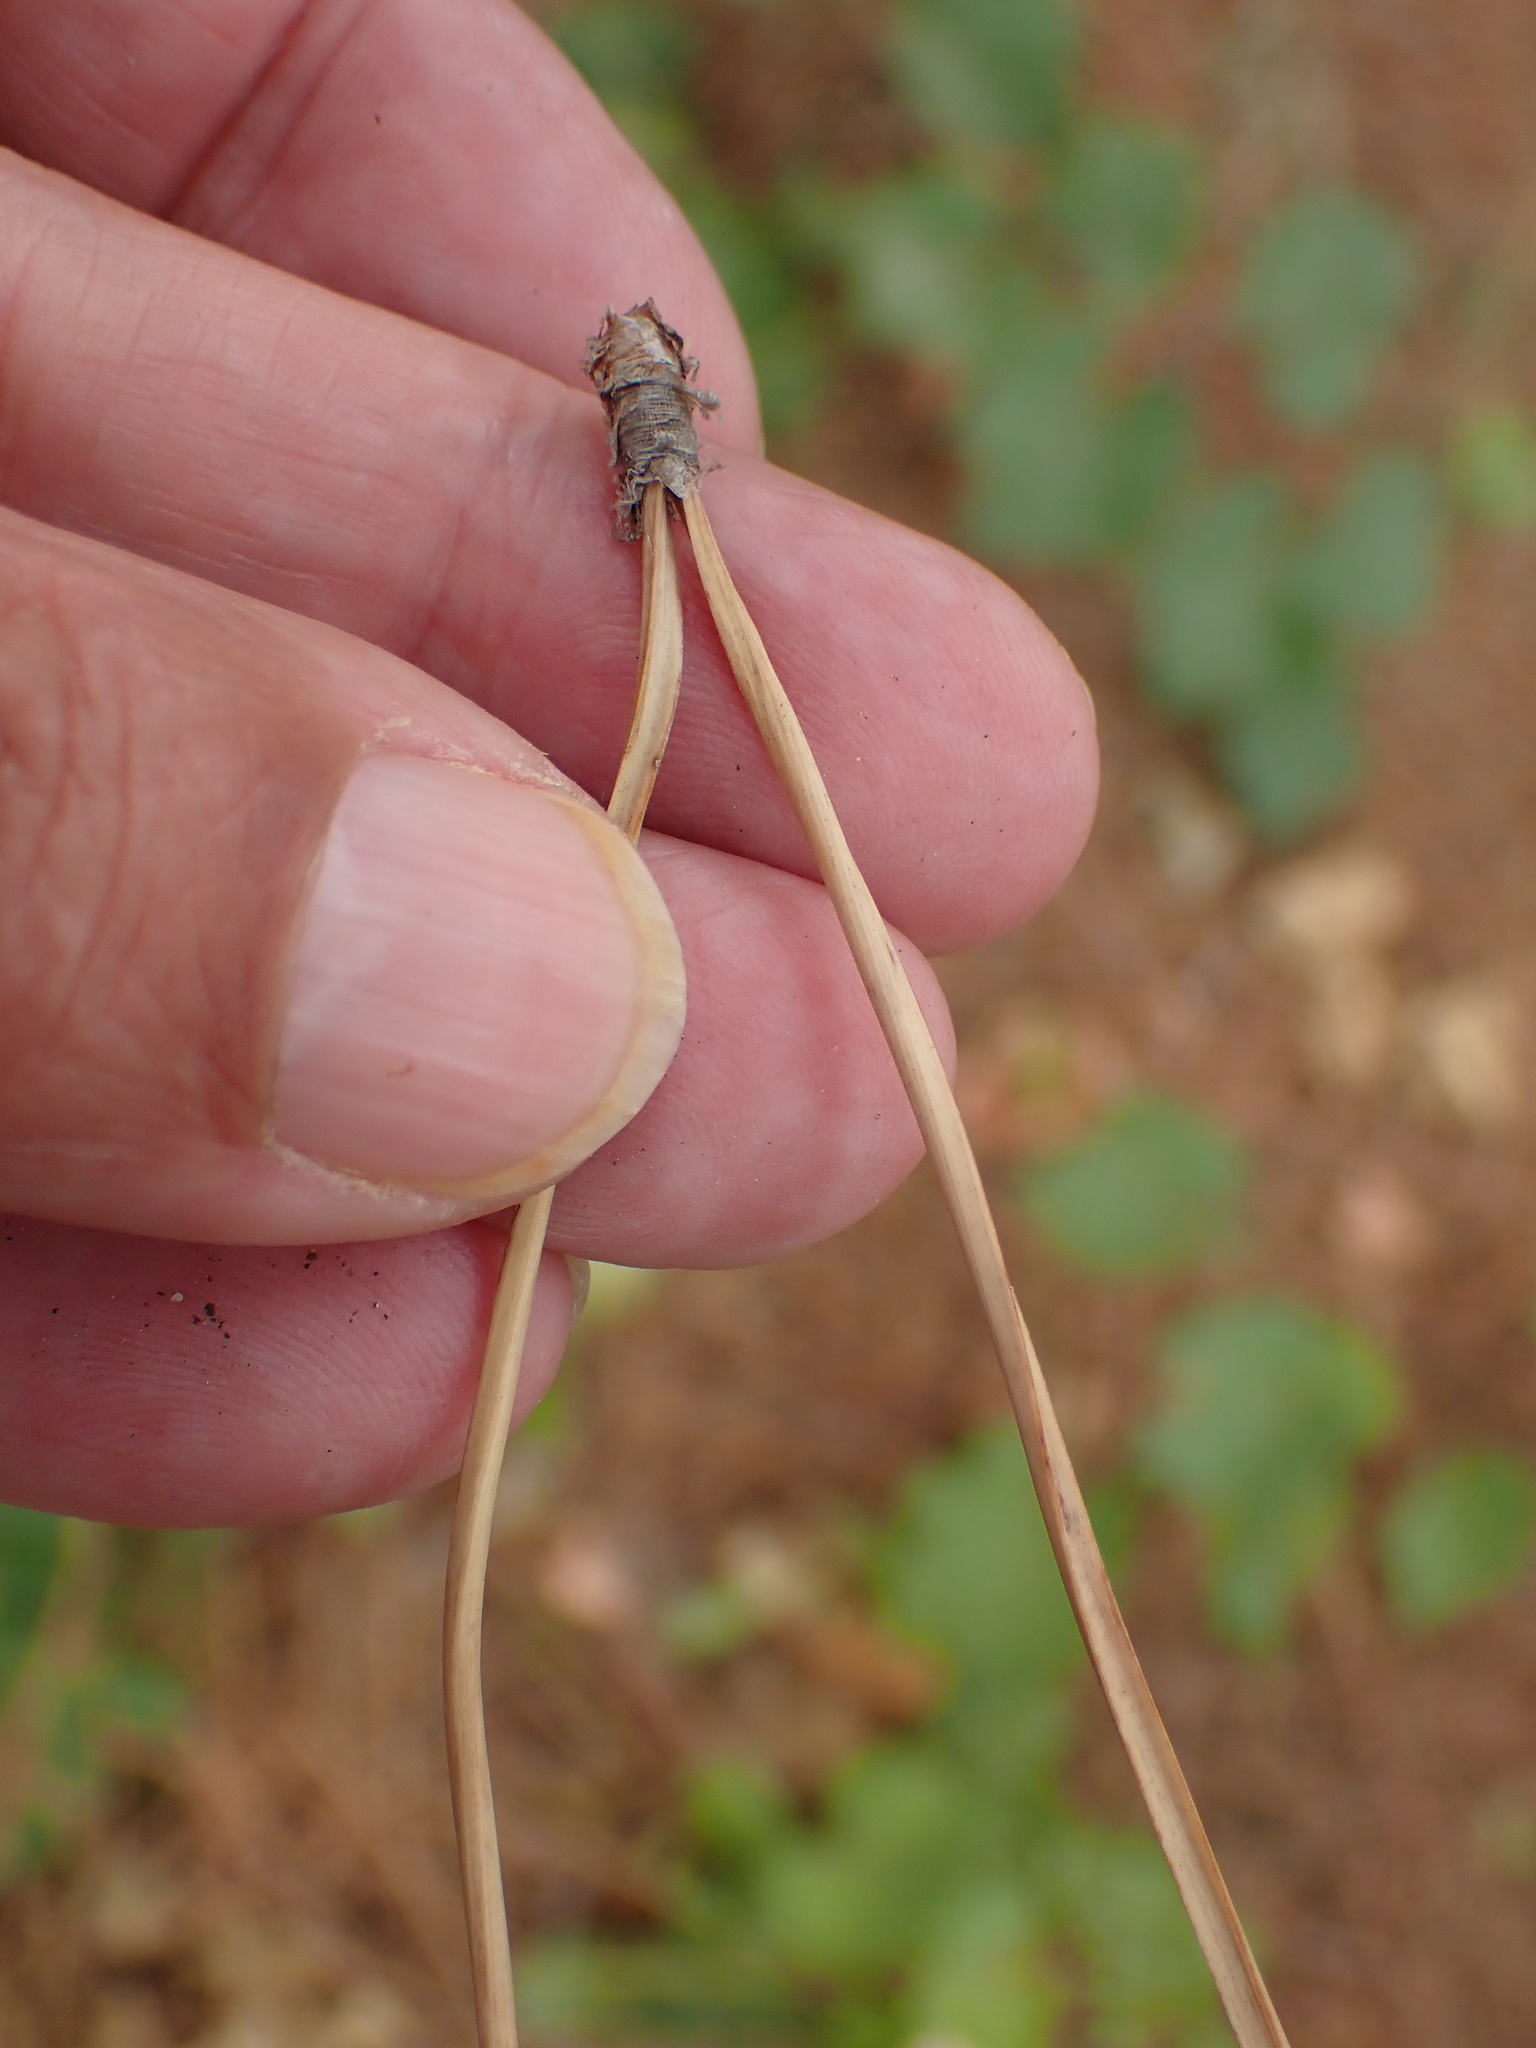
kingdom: Plantae
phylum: Tracheophyta
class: Pinopsida
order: Pinales
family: Pinaceae
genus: Pinus
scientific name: Pinus pinea
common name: Italian stone pine
